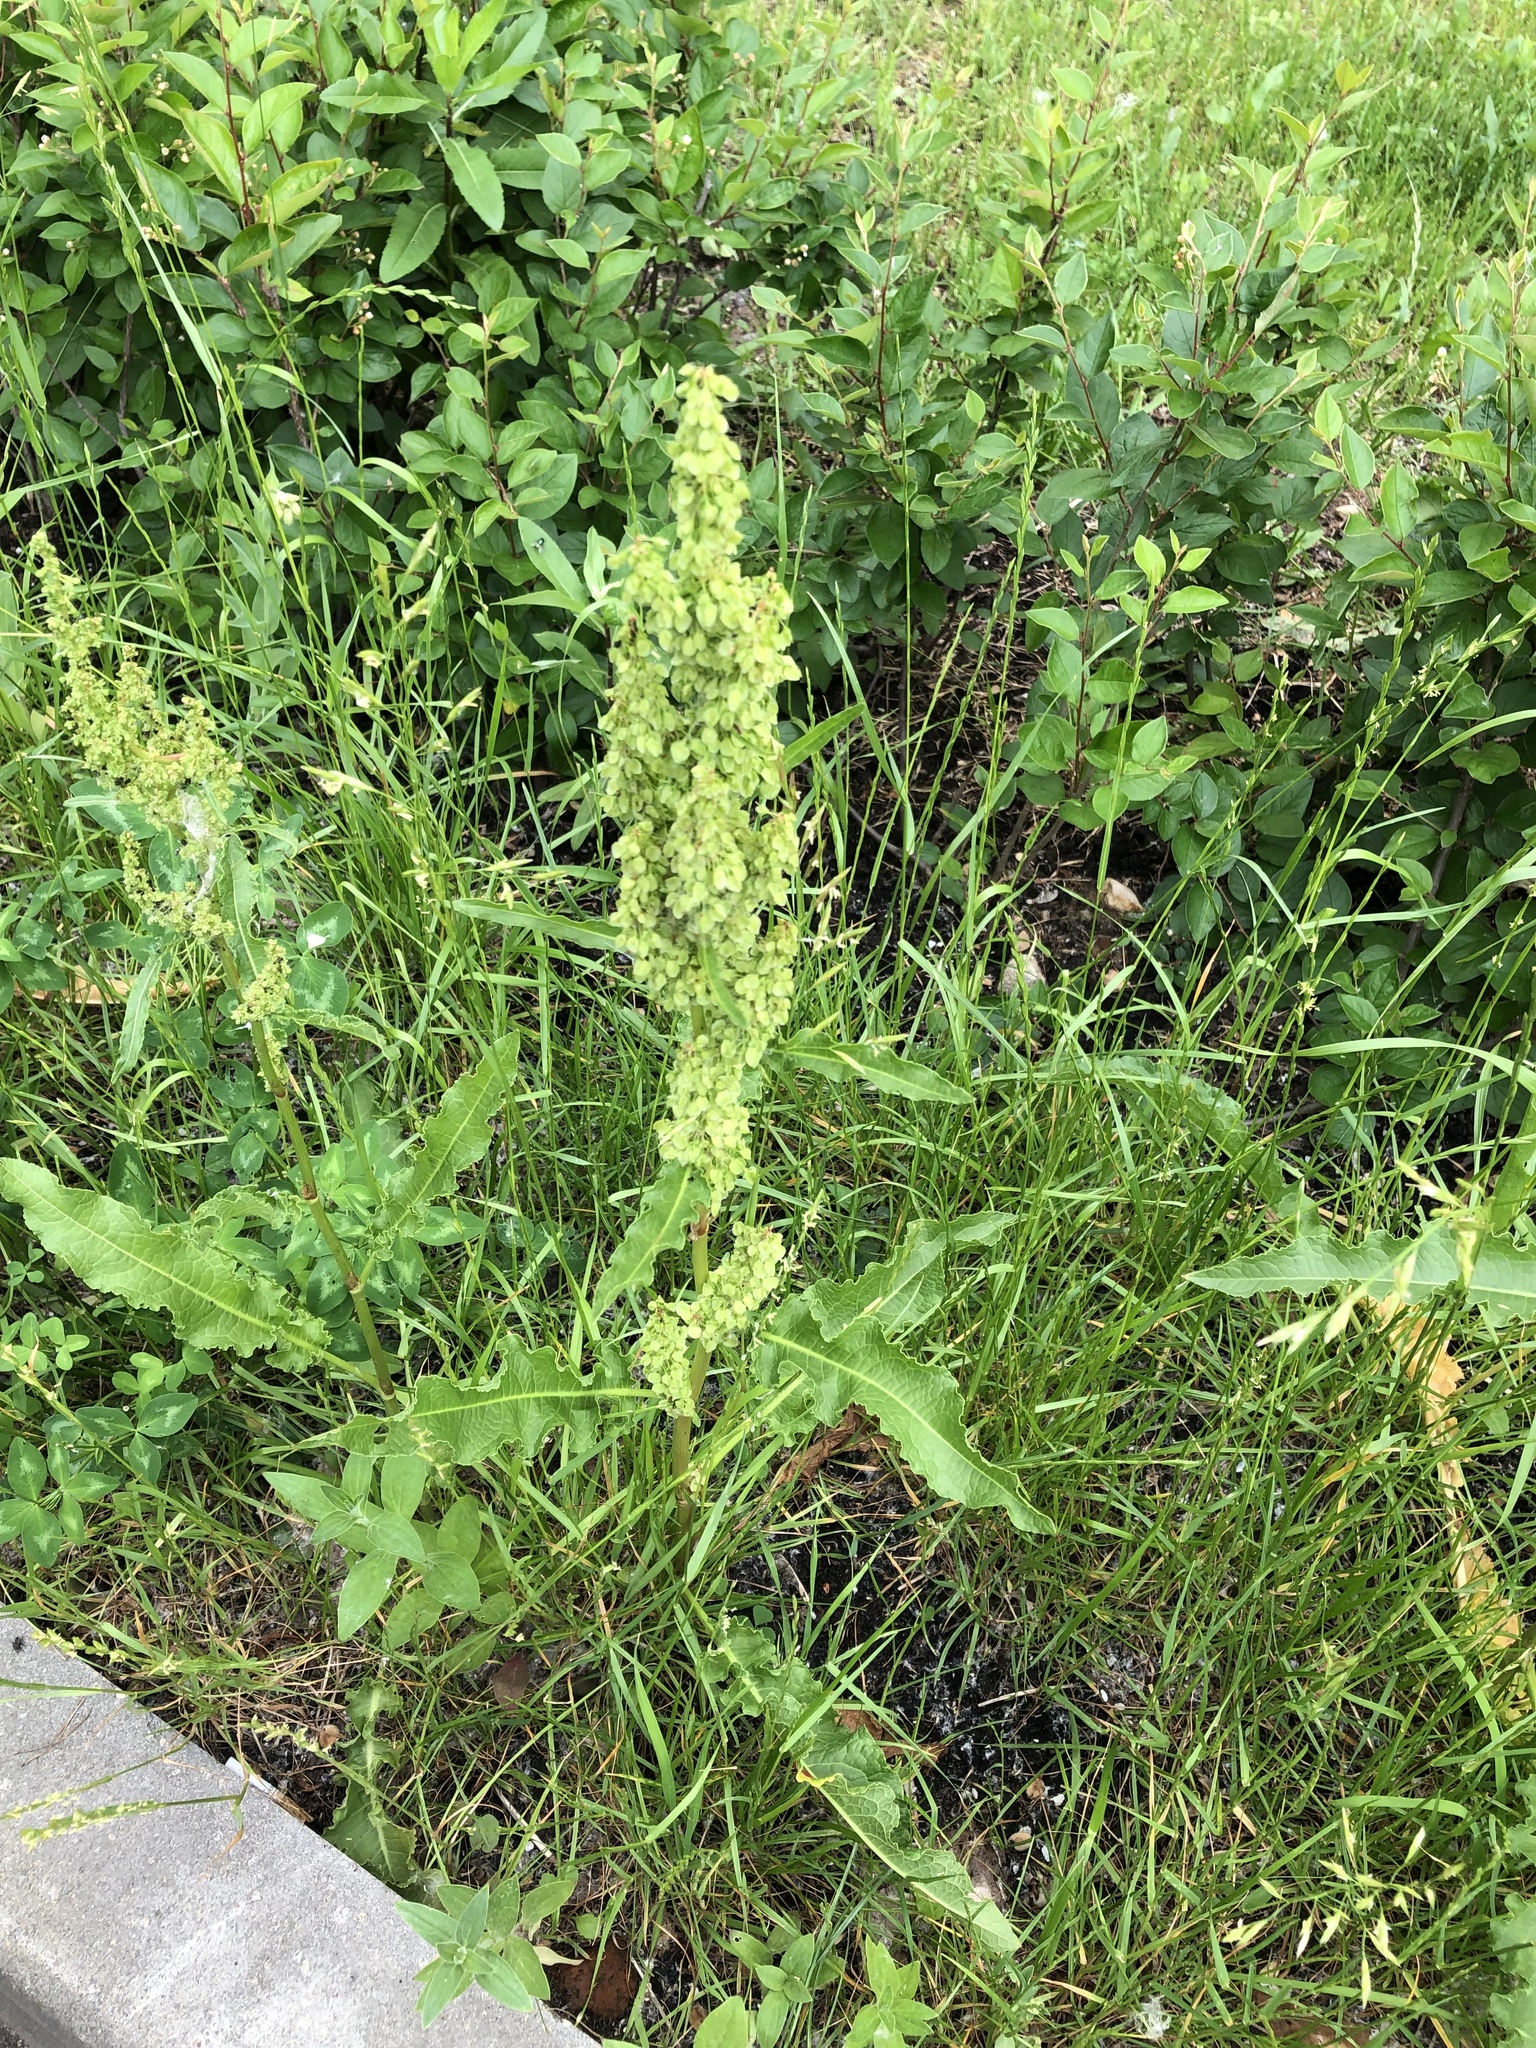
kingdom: Plantae
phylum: Tracheophyta
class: Magnoliopsida
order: Caryophyllales
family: Polygonaceae
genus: Rumex
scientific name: Rumex crispus
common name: Curled dock
